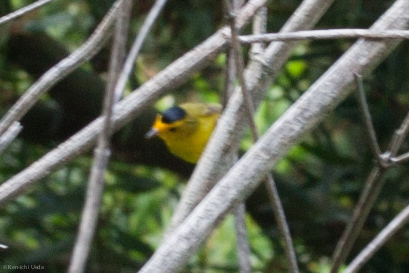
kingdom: Animalia
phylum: Chordata
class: Aves
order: Passeriformes
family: Parulidae
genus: Cardellina
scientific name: Cardellina pusilla
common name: Wilson's warbler
